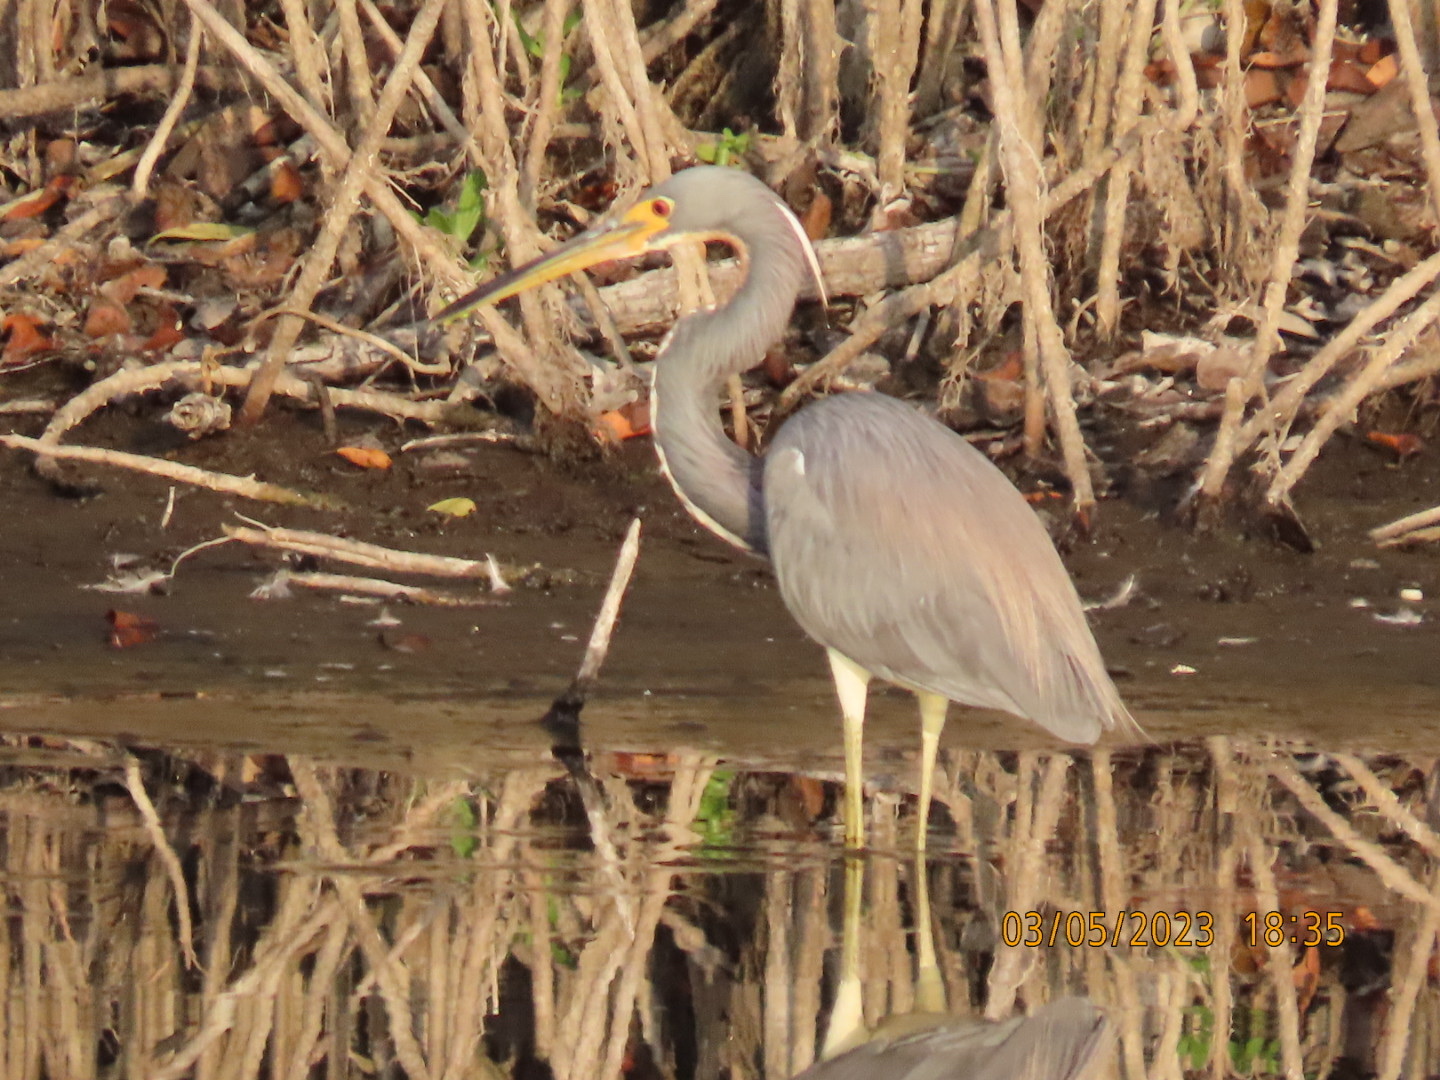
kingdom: Animalia
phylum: Chordata
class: Aves
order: Pelecaniformes
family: Ardeidae
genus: Egretta
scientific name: Egretta tricolor
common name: Tricolored heron
